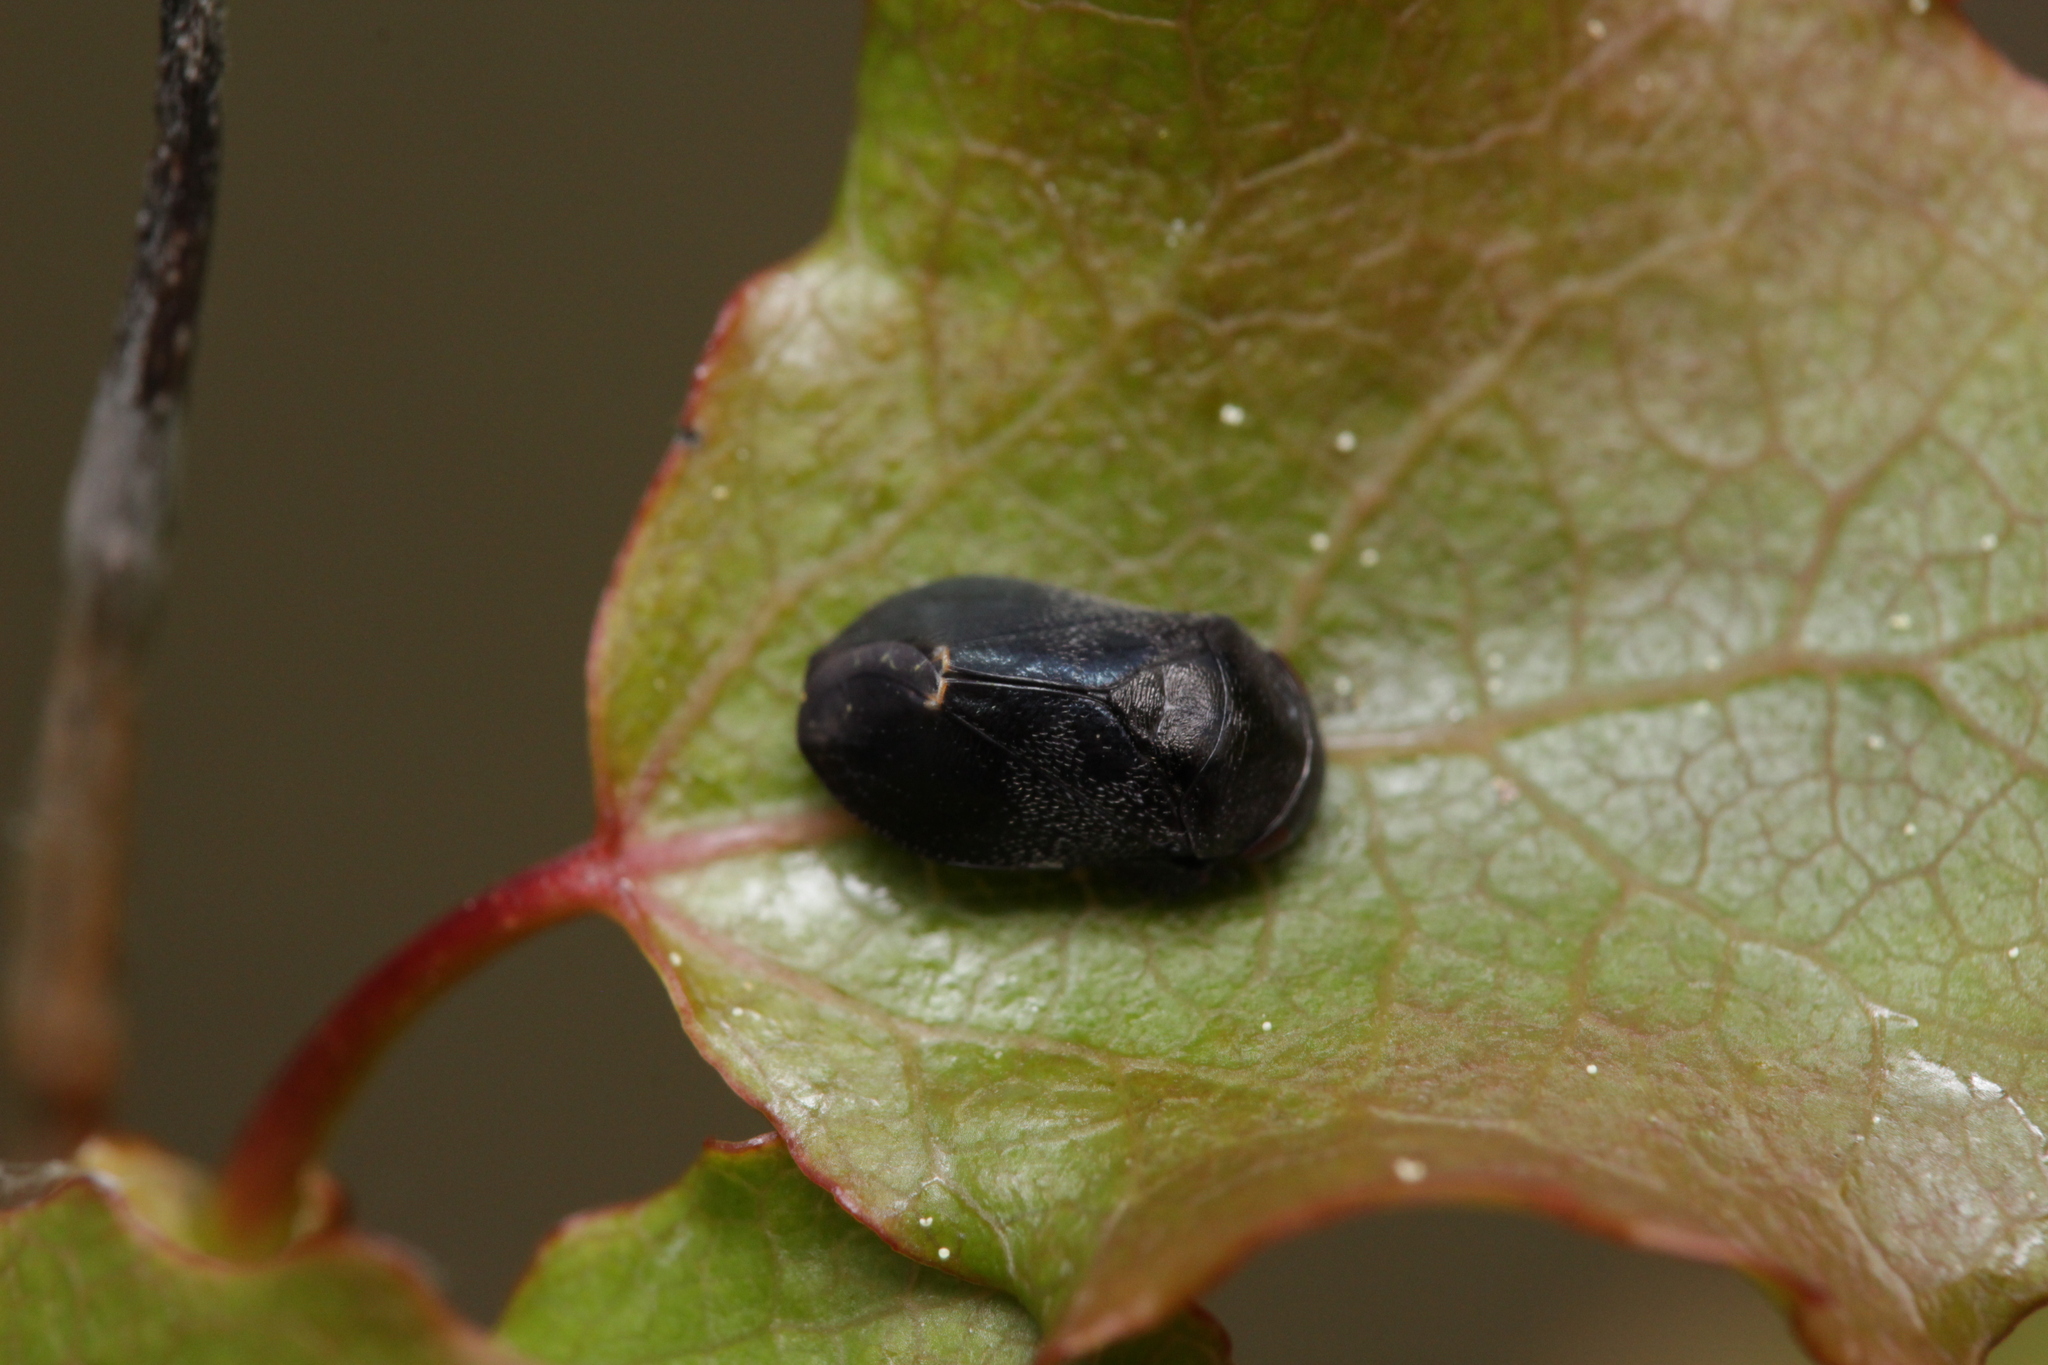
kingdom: Animalia
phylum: Arthropoda
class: Insecta
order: Hemiptera
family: Cicadellidae
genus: Penthimia
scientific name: Penthimia nigra
